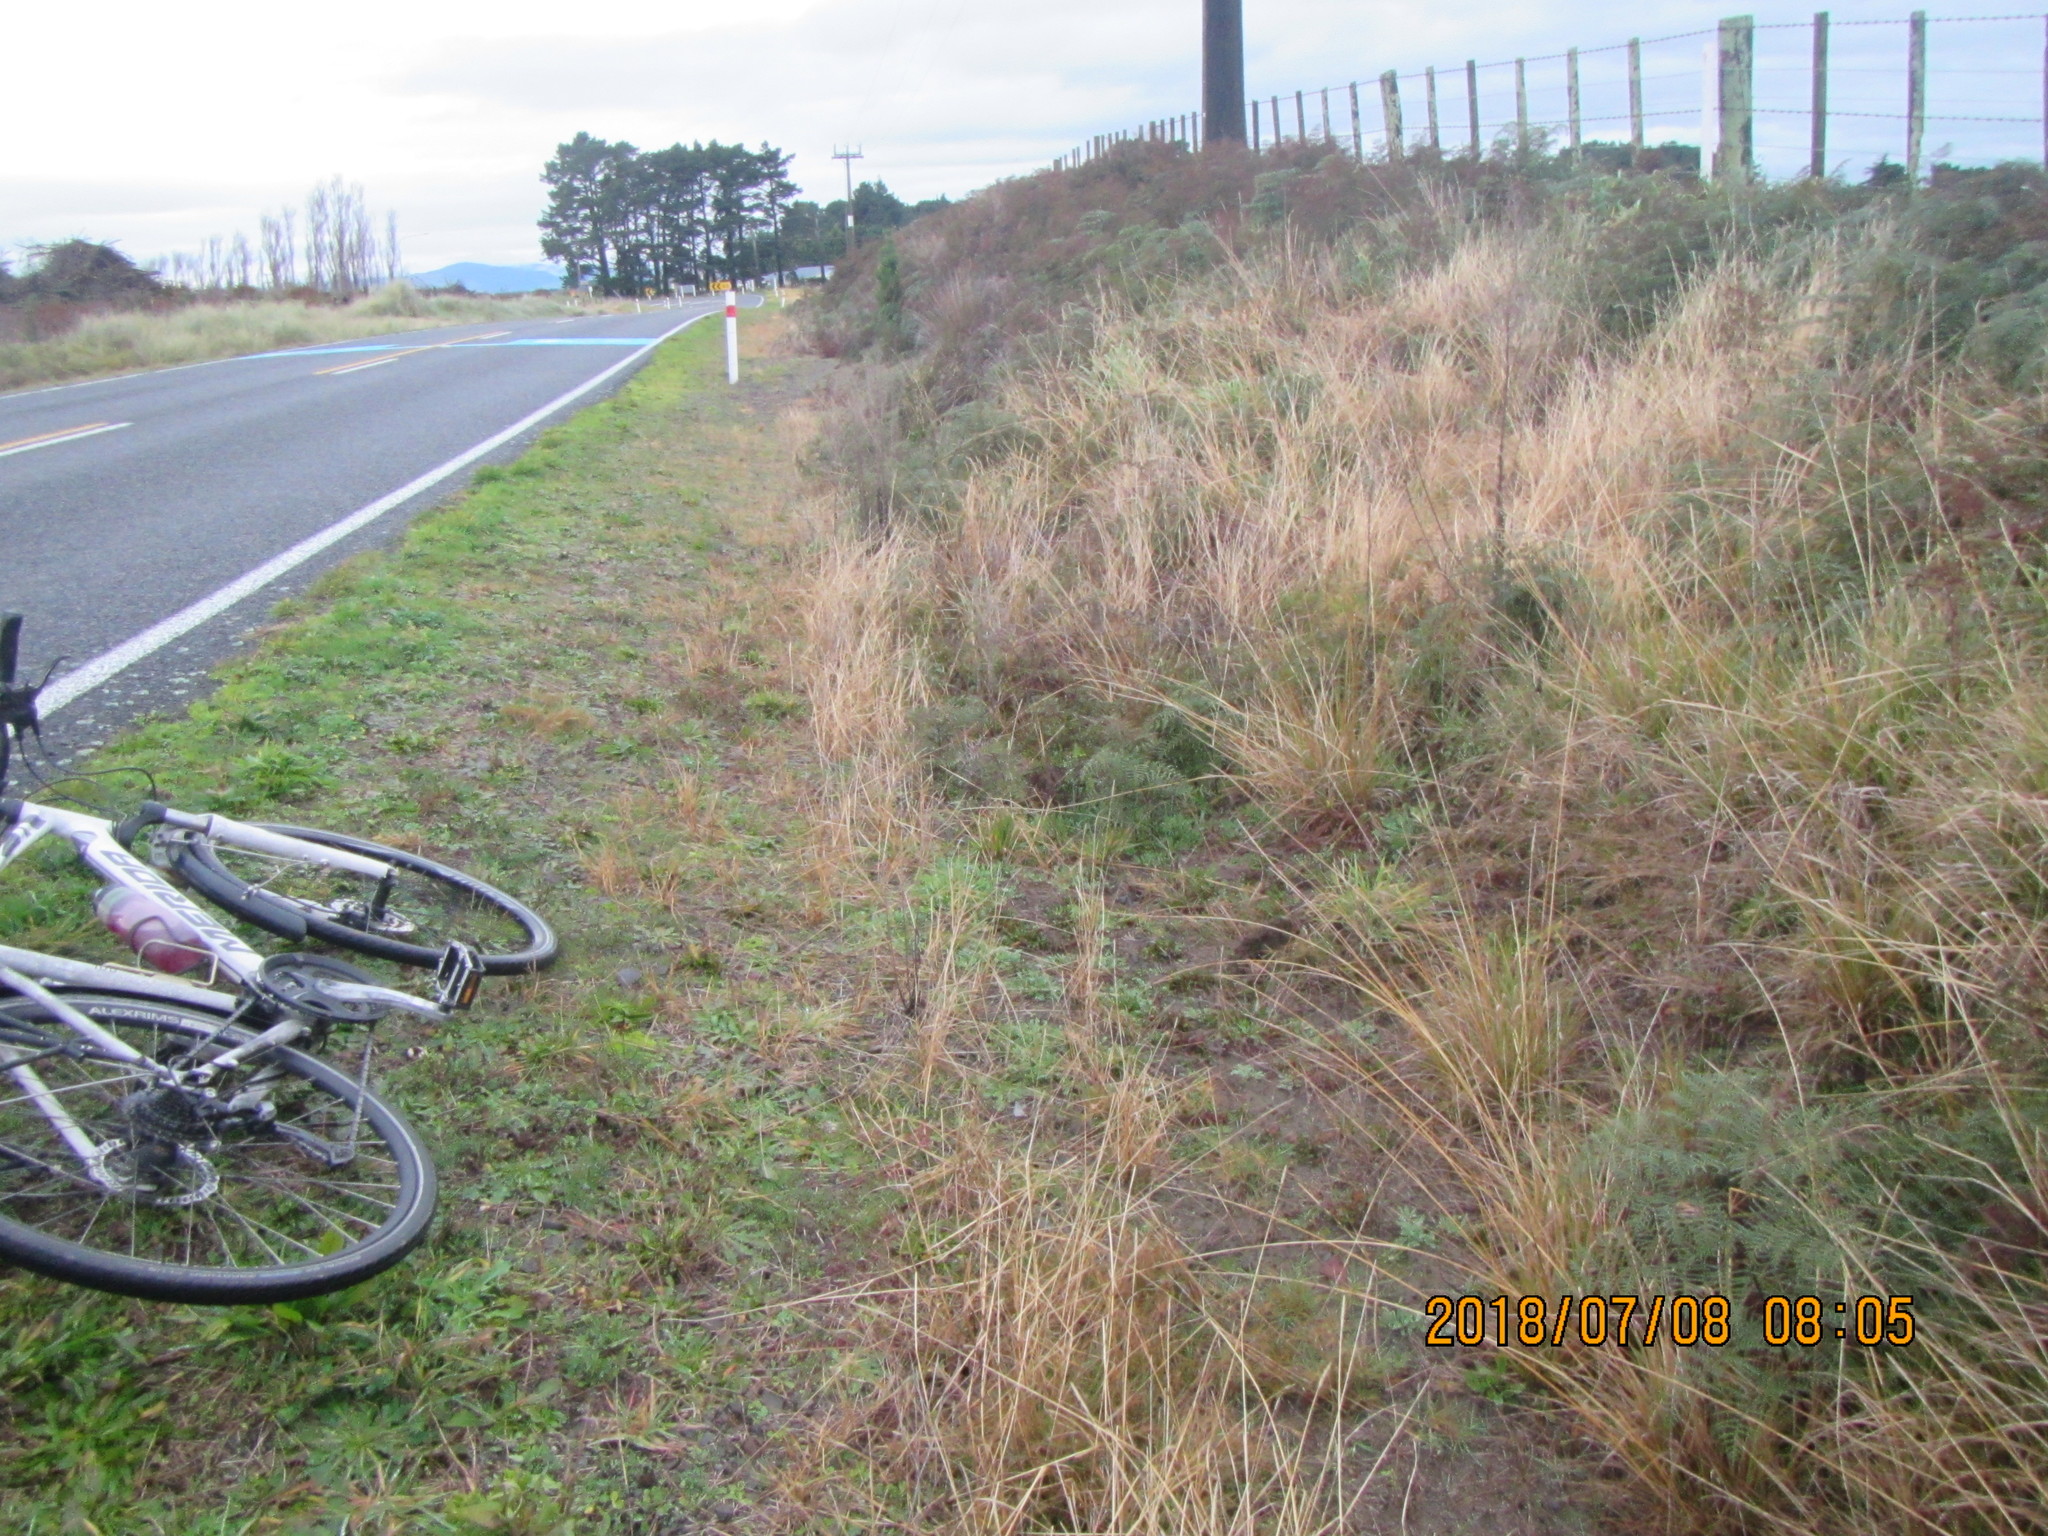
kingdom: Plantae
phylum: Tracheophyta
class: Pinopsida
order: Pinales
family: Pinaceae
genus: Pinus
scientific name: Pinus radiata
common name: Monterey pine
